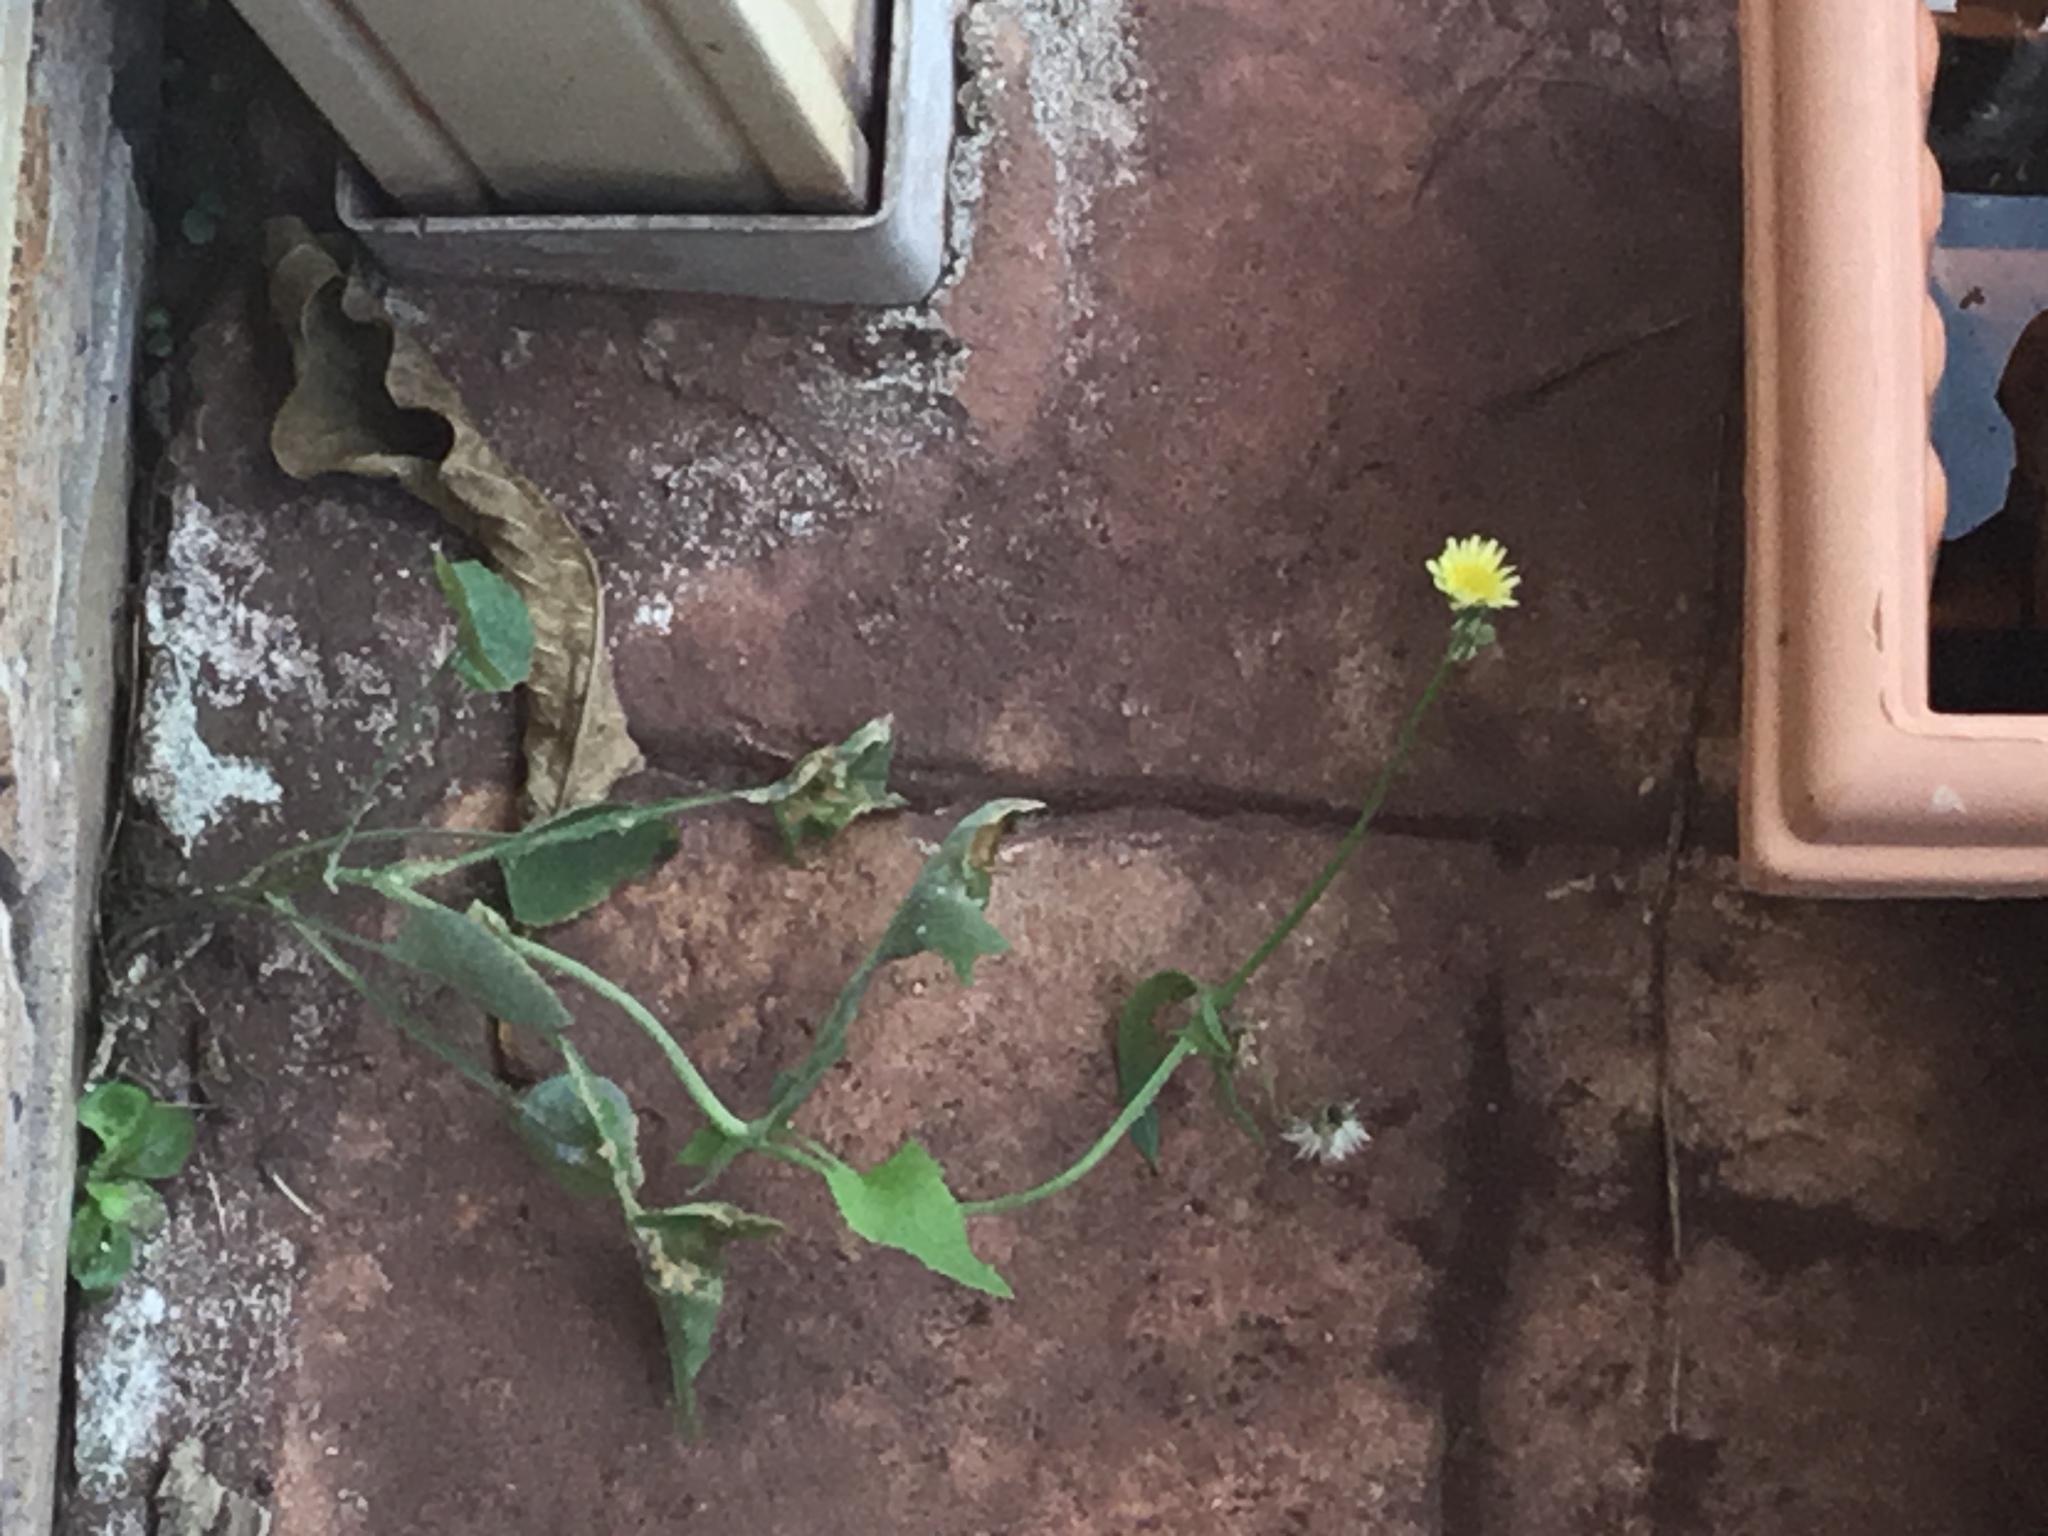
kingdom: Plantae
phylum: Tracheophyta
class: Magnoliopsida
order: Asterales
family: Asteraceae
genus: Sonchus
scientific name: Sonchus oleraceus
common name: Common sowthistle
